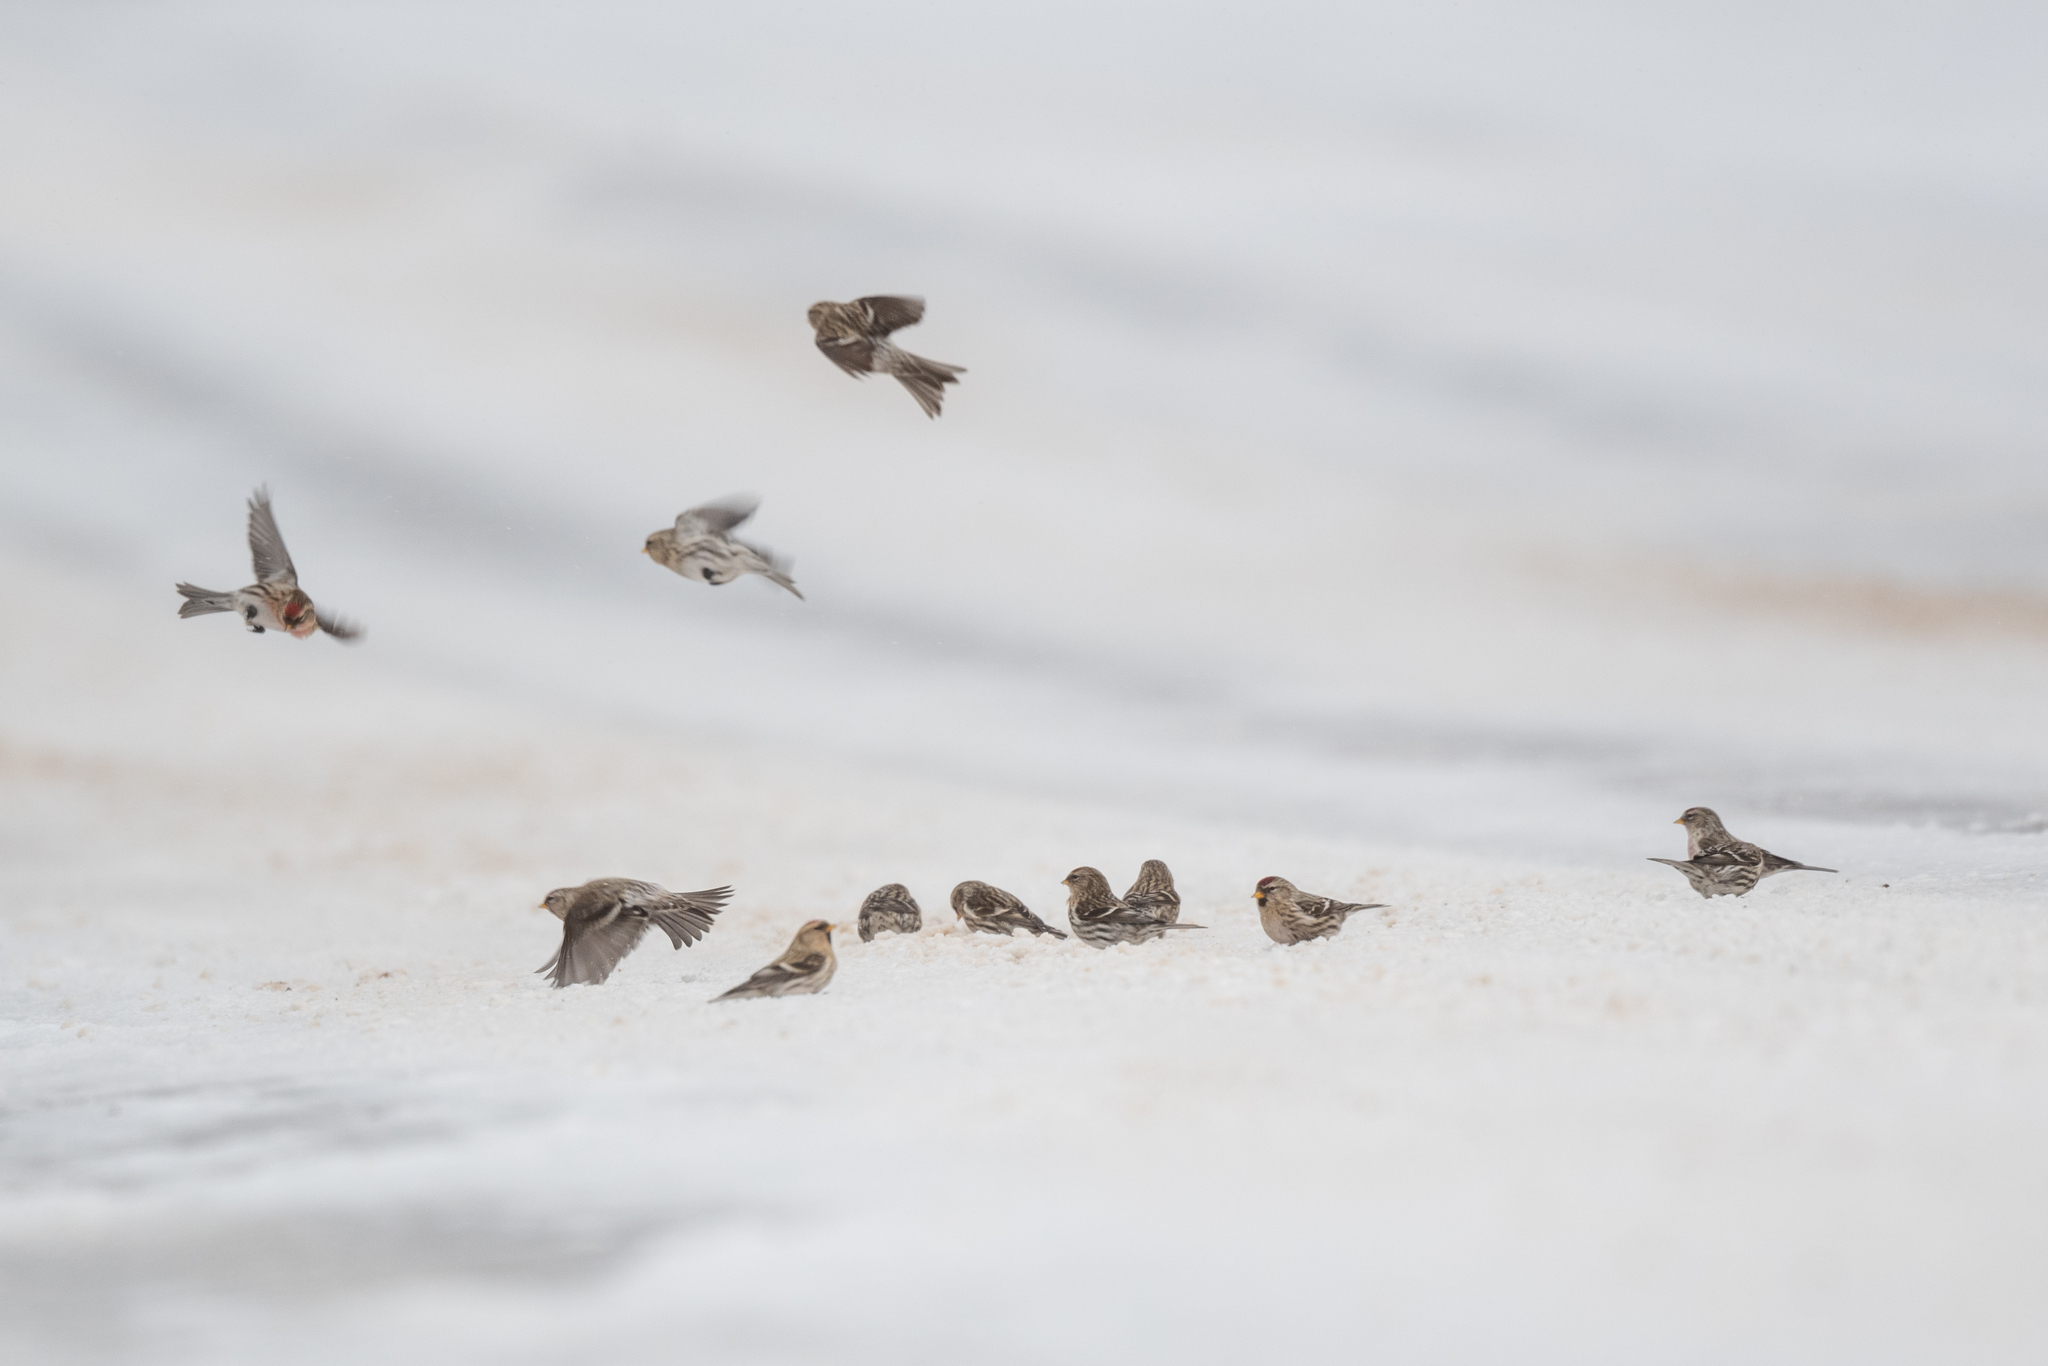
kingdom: Animalia
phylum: Chordata
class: Aves
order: Passeriformes
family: Fringillidae
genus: Acanthis
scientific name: Acanthis flammea
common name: Common redpoll
